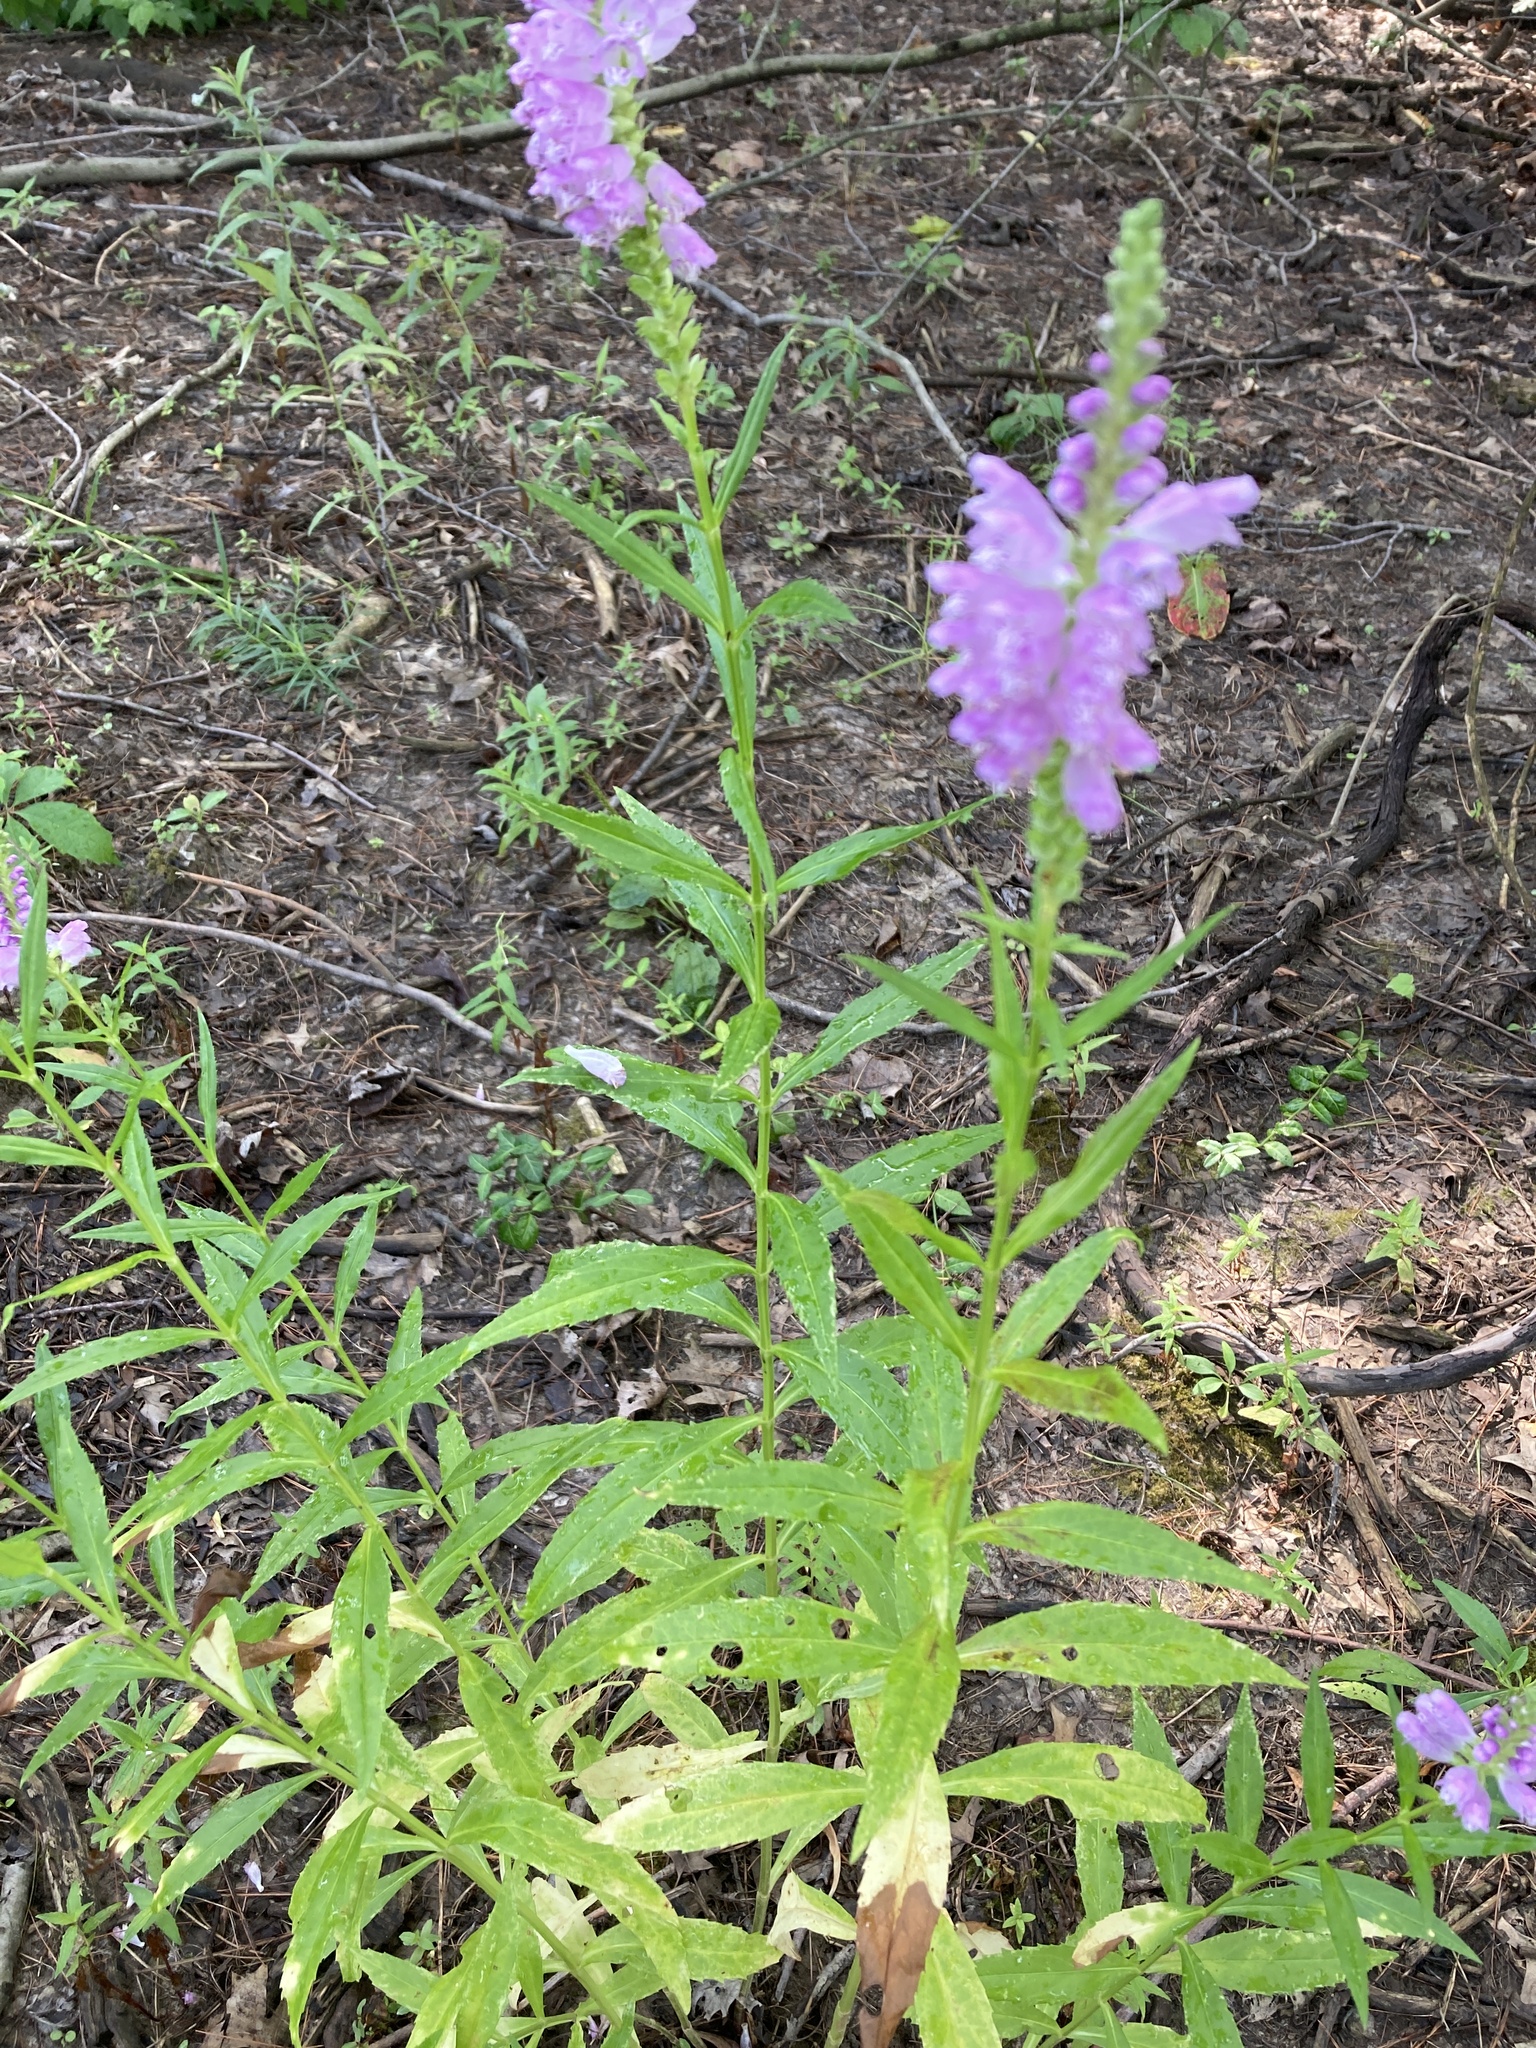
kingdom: Plantae
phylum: Tracheophyta
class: Magnoliopsida
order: Lamiales
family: Lamiaceae
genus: Physostegia
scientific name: Physostegia virginiana
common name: Obedient-plant
